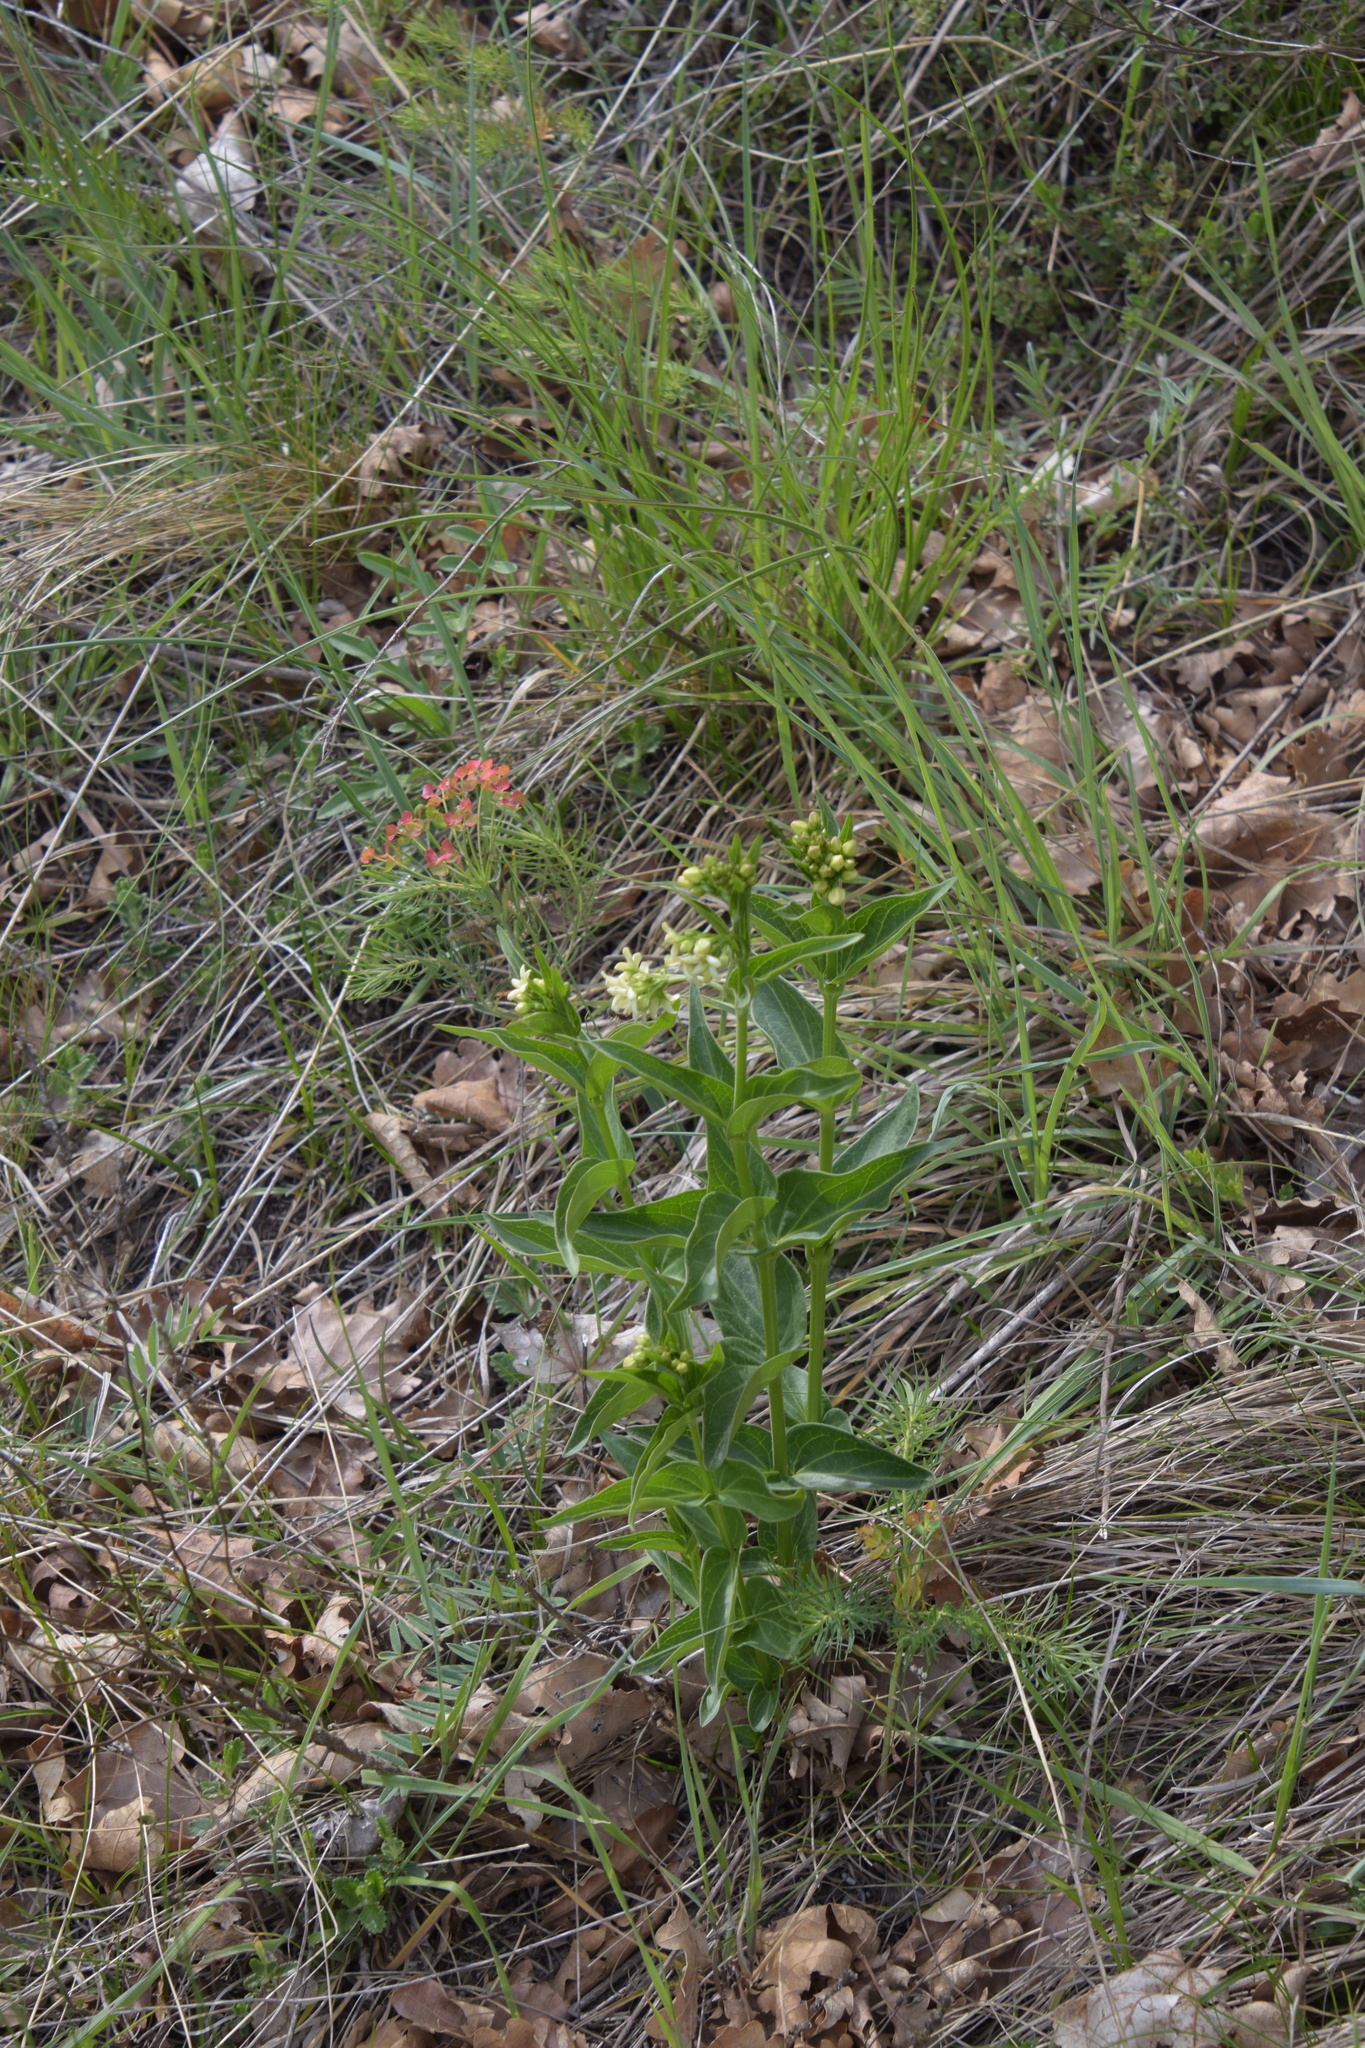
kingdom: Plantae
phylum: Tracheophyta
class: Magnoliopsida
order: Gentianales
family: Apocynaceae
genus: Vincetoxicum
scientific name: Vincetoxicum hirundinaria
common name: White swallowwort
